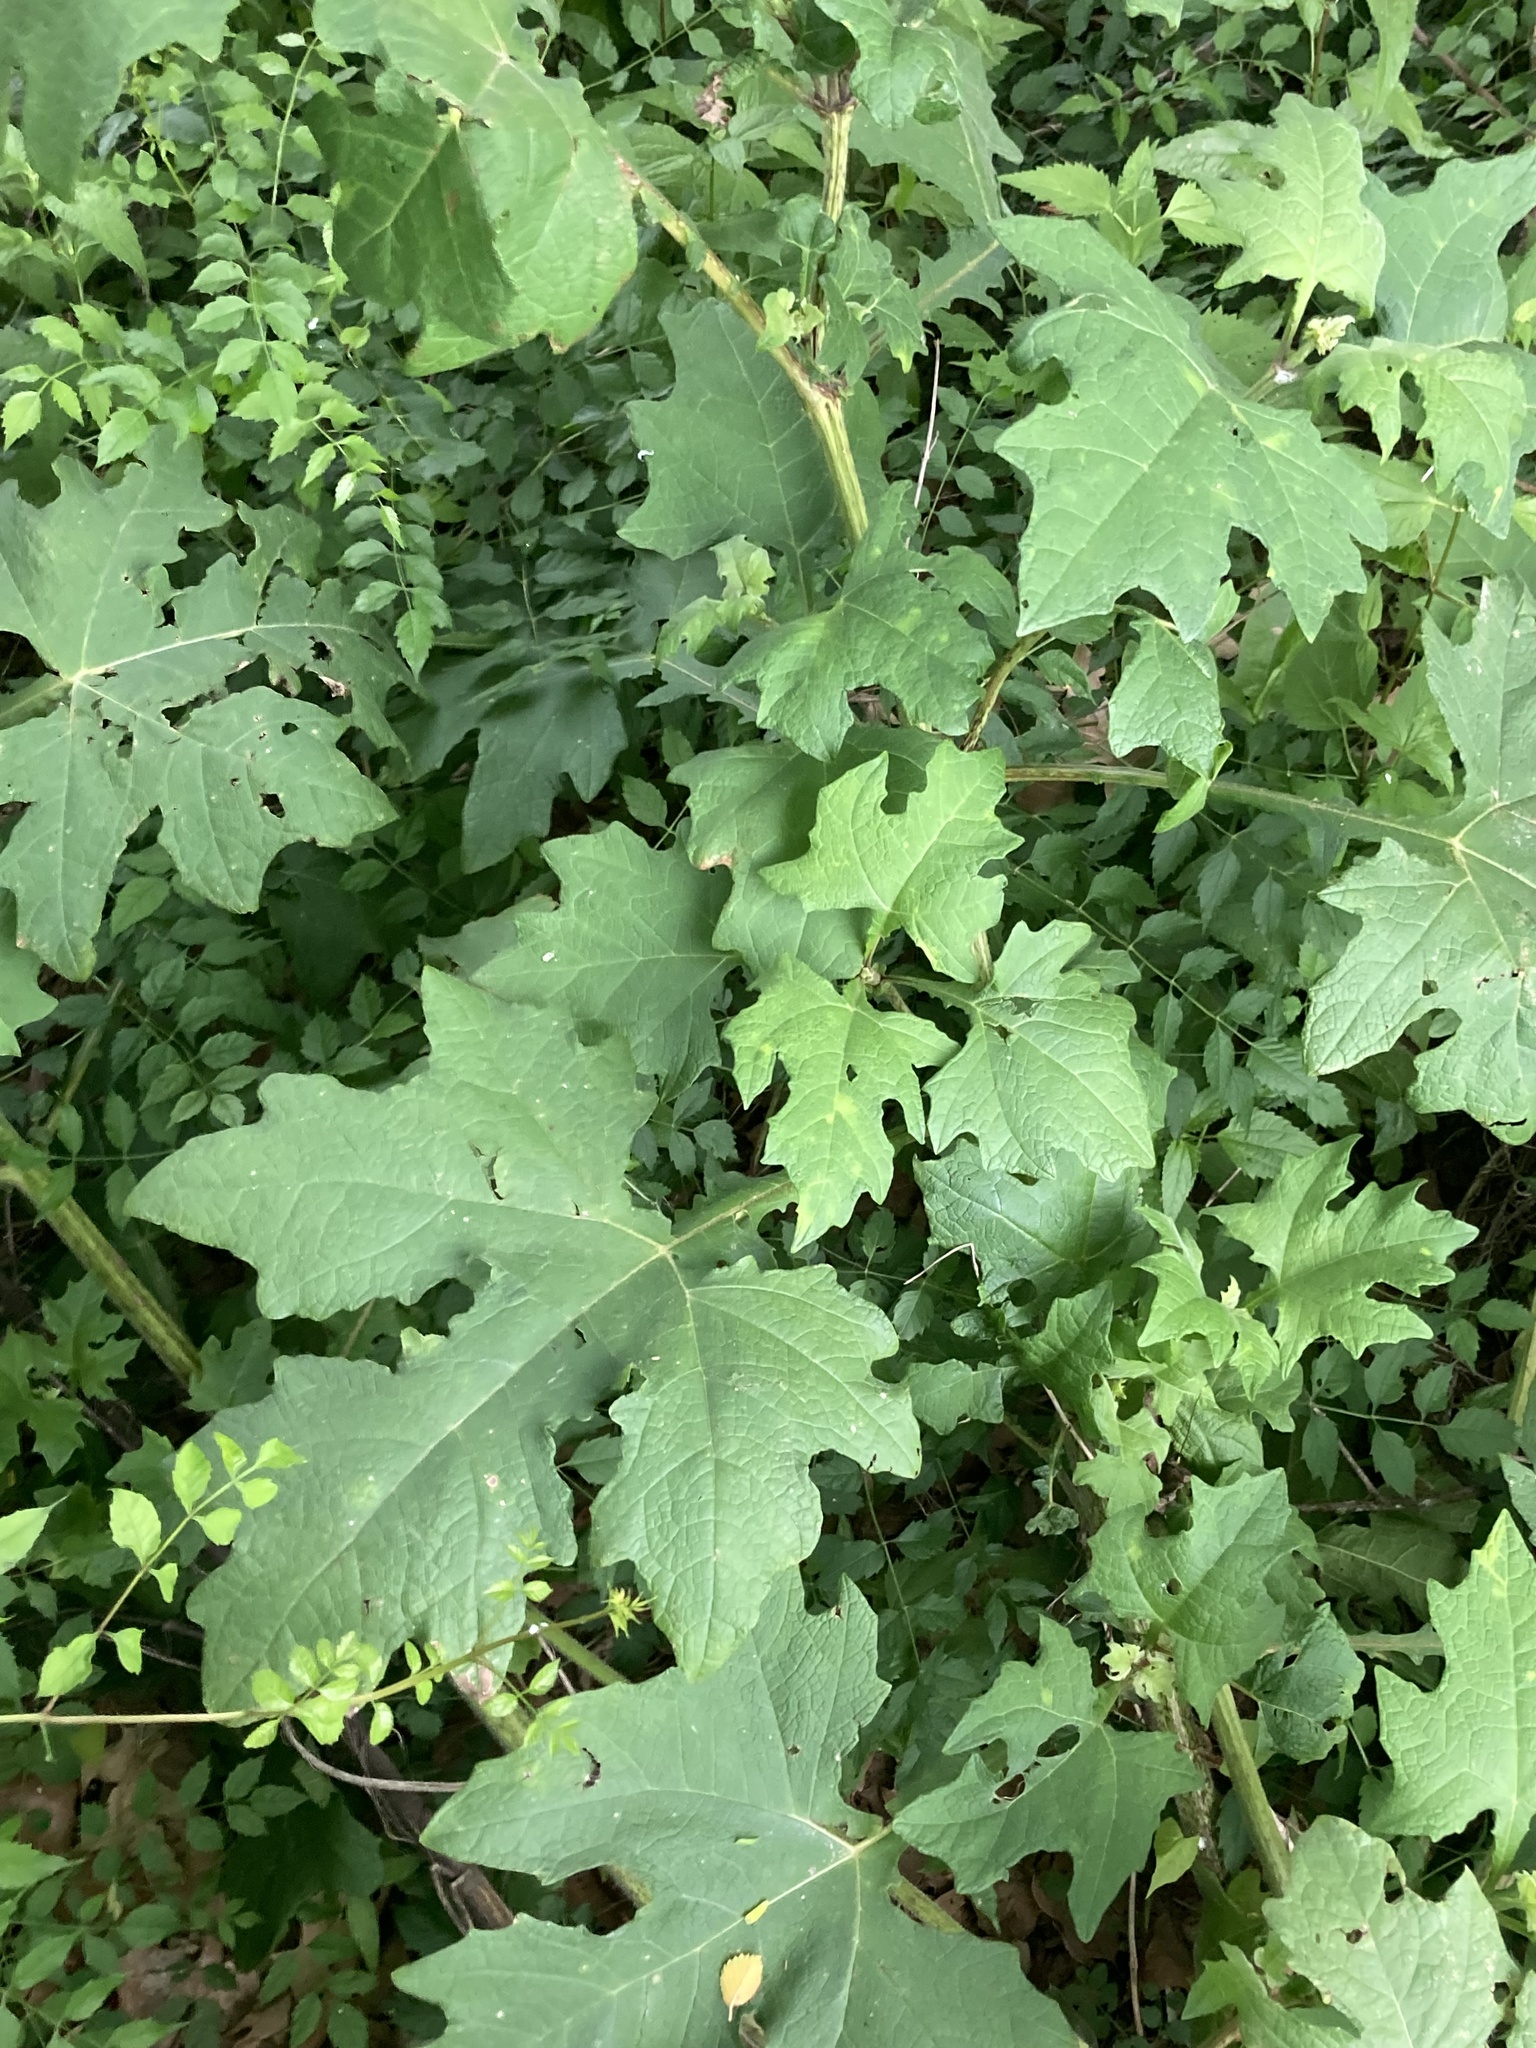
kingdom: Plantae
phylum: Tracheophyta
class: Magnoliopsida
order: Asterales
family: Asteraceae
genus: Smallanthus
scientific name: Smallanthus uvedalia
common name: Bear's-foot
